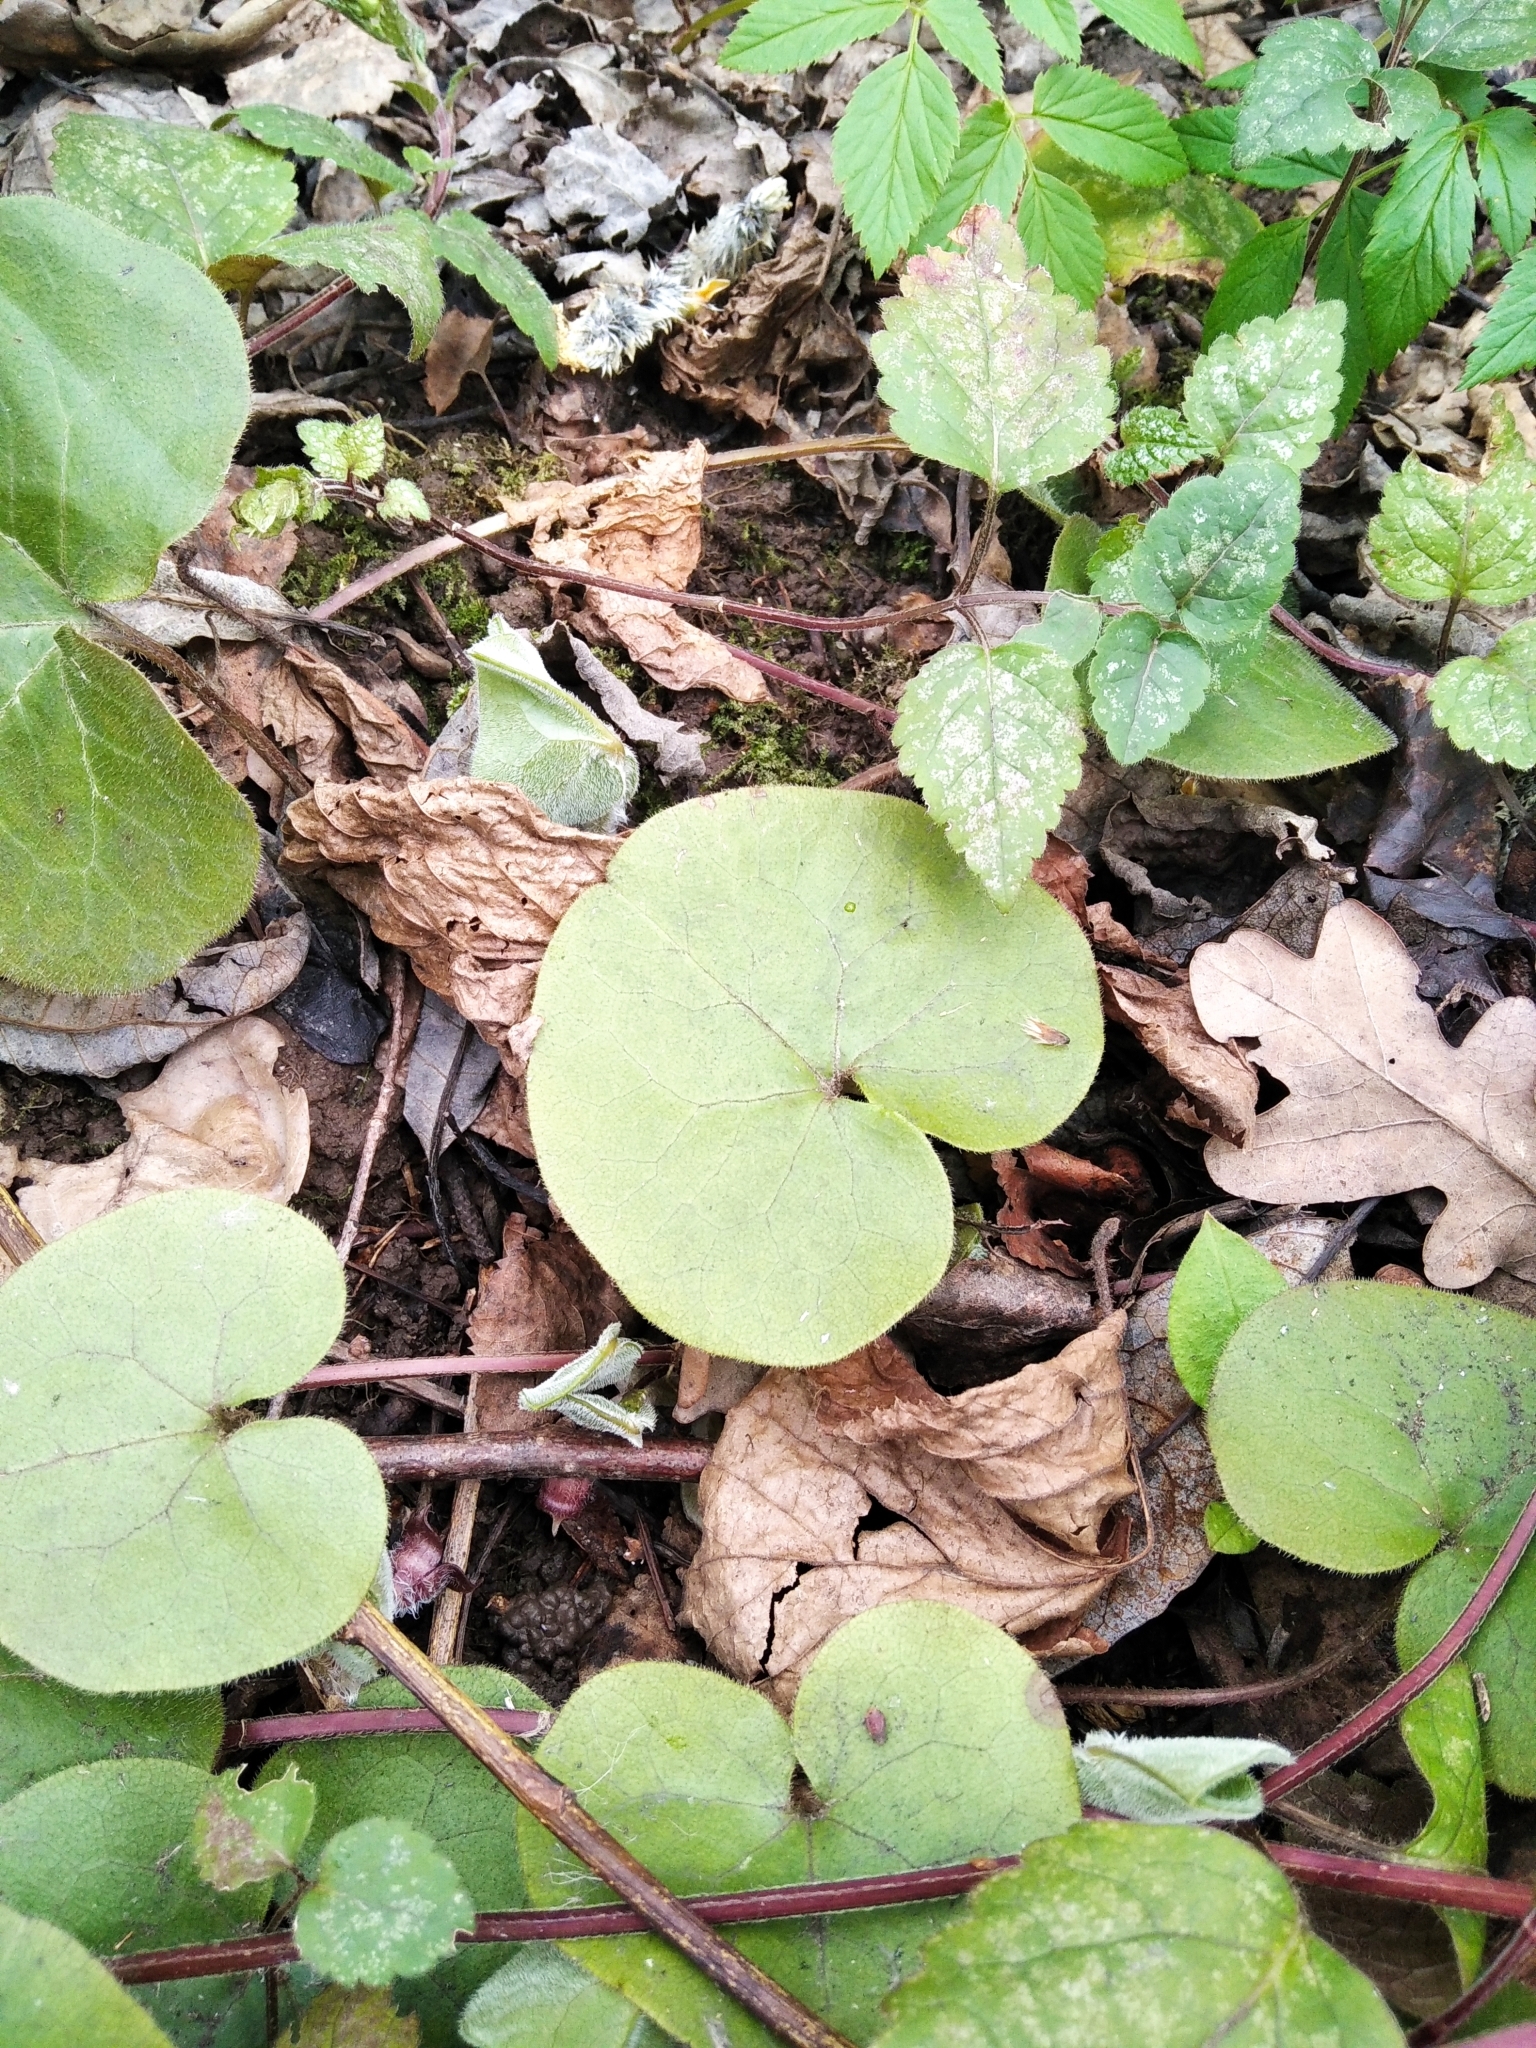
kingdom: Plantae
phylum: Tracheophyta
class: Magnoliopsida
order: Piperales
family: Aristolochiaceae
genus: Asarum
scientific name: Asarum europaeum
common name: Asarabacca
